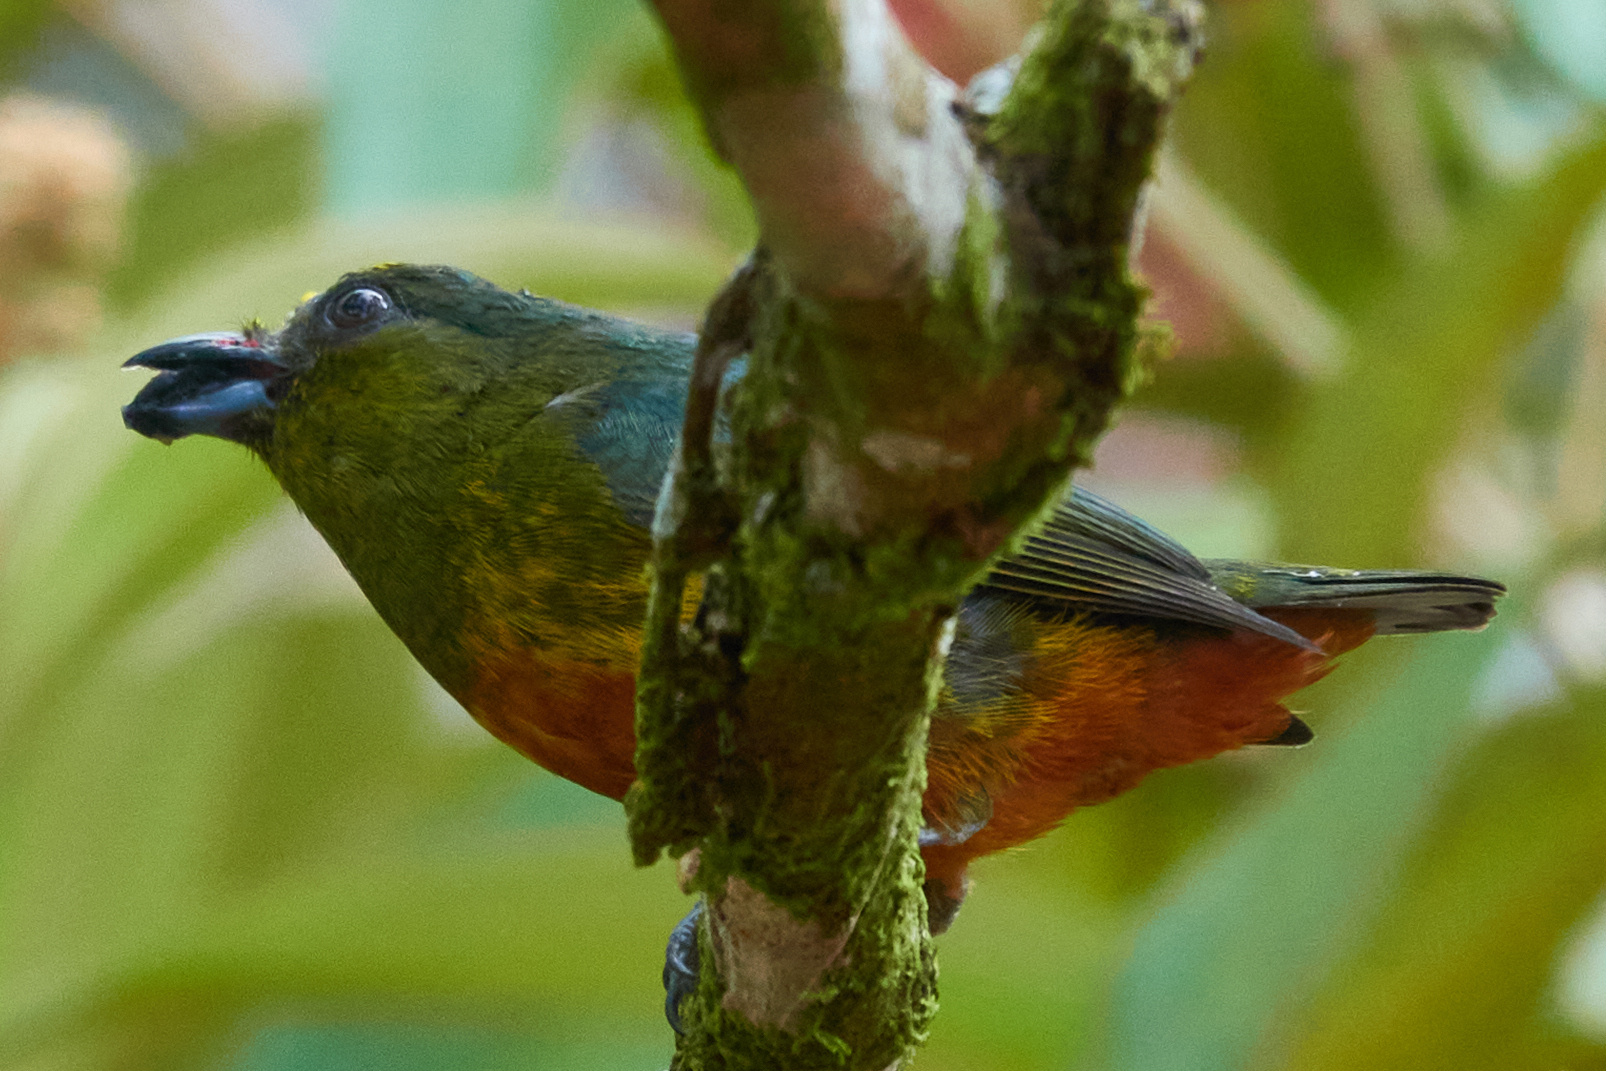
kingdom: Animalia
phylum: Chordata
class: Aves
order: Passeriformes
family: Fringillidae
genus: Euphonia
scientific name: Euphonia gouldi
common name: Olive-backed euphonia
